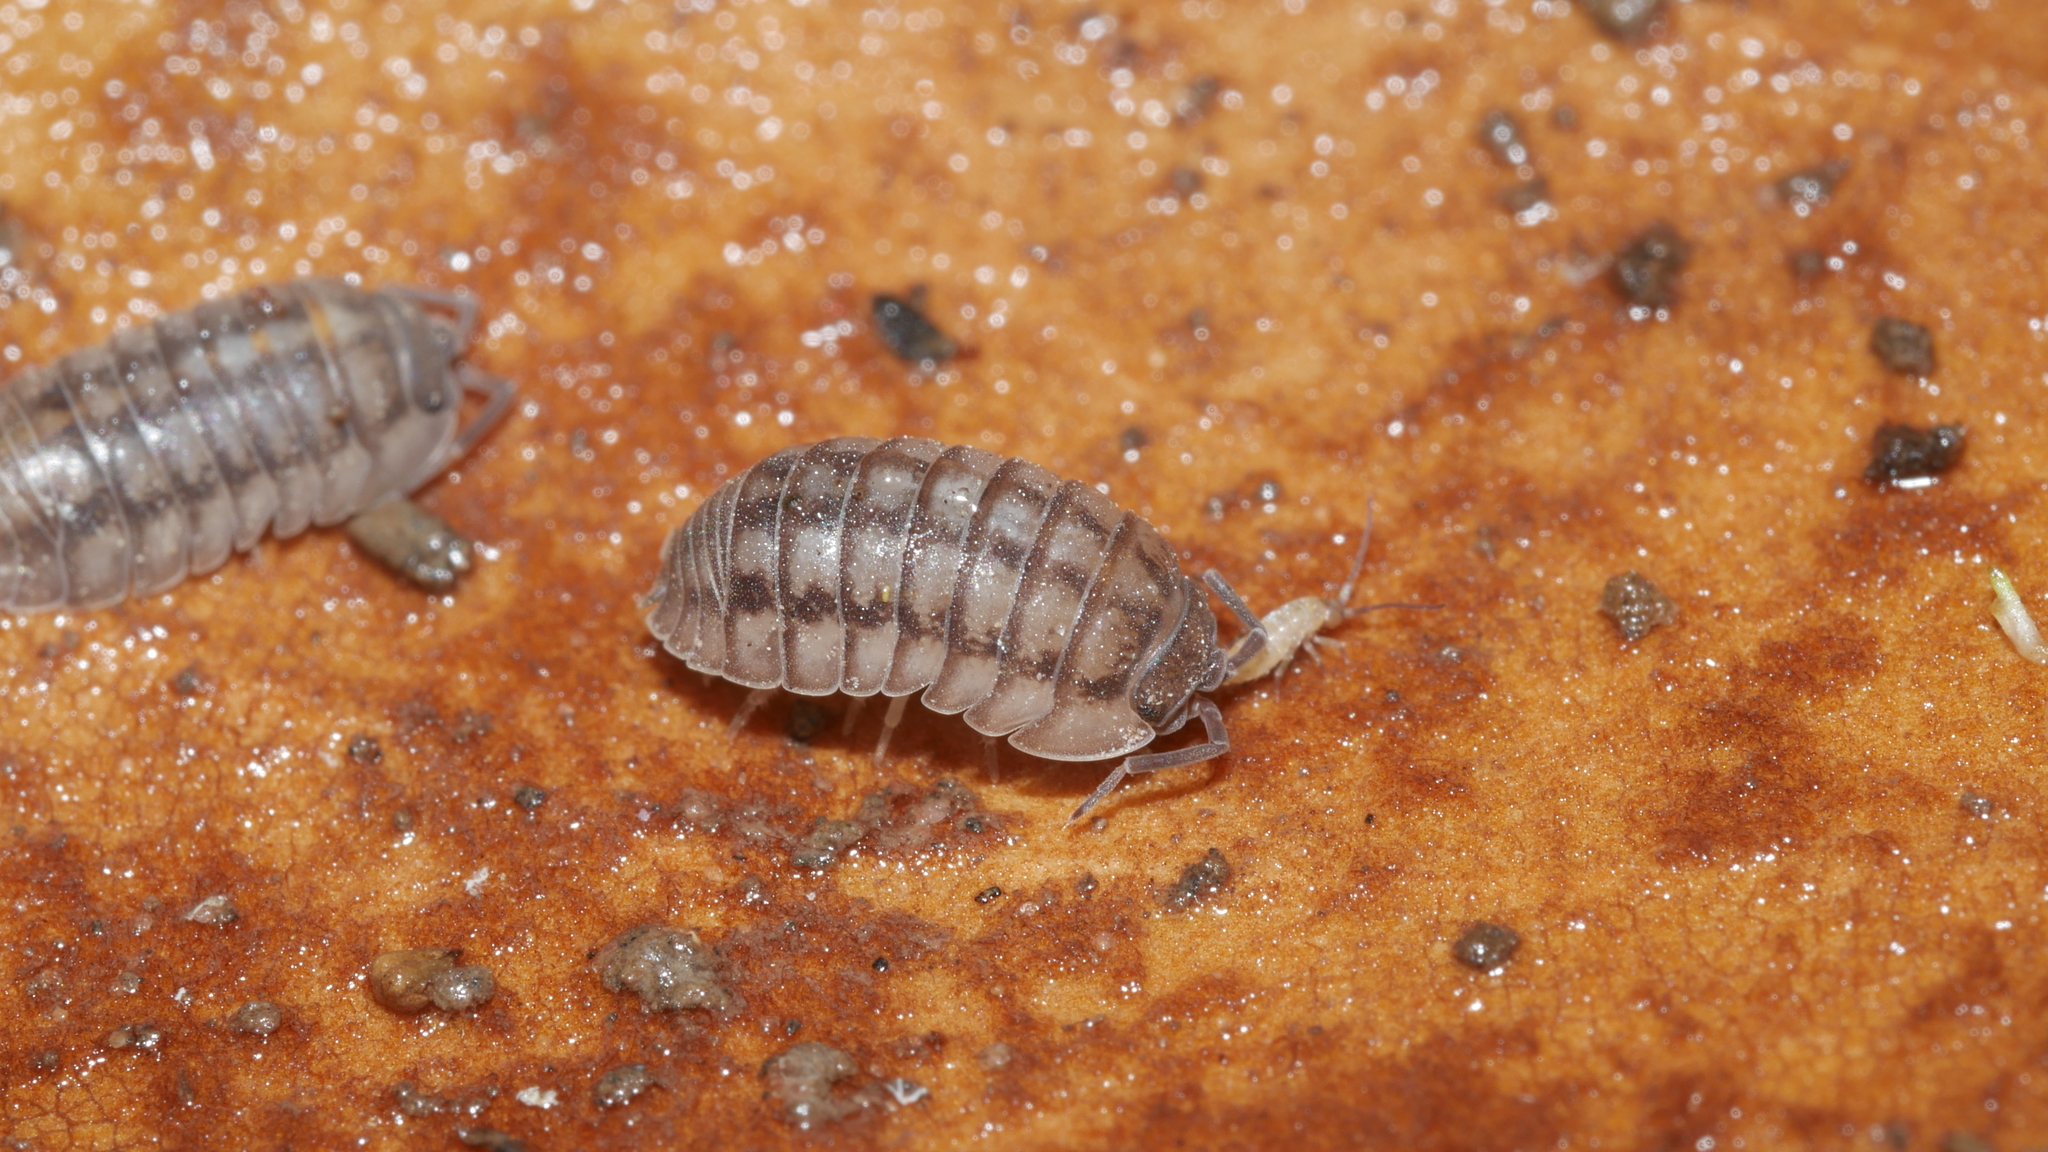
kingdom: Animalia
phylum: Arthropoda
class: Malacostraca
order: Isopoda
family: Armadillidiidae
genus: Armadillidium
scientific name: Armadillidium nasatum
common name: Isopod
